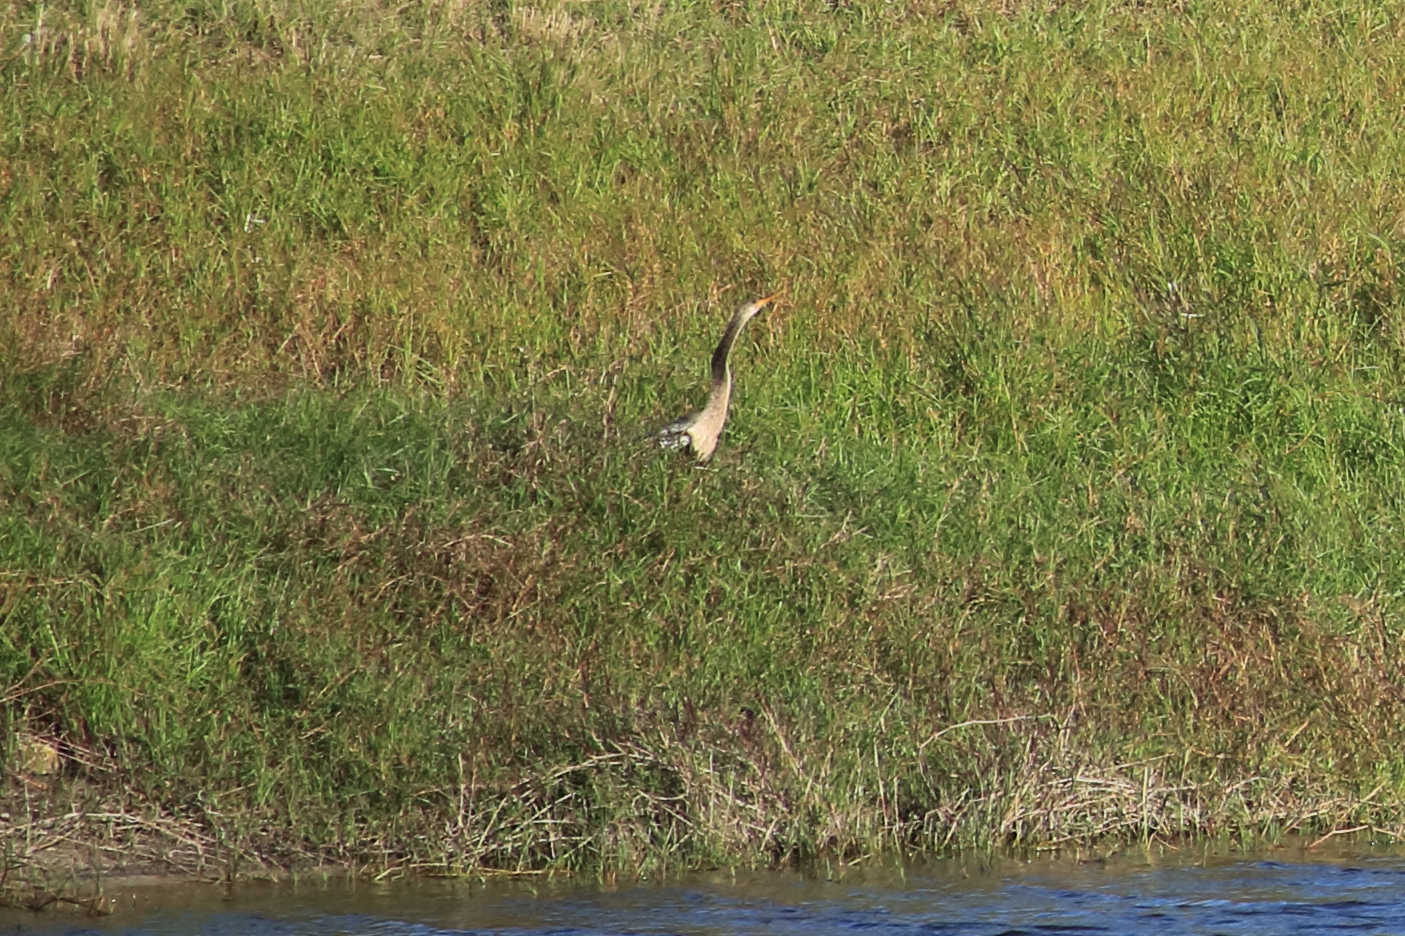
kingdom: Animalia
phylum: Chordata
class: Aves
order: Suliformes
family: Anhingidae
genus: Anhinga
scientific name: Anhinga anhinga
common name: Anhinga
